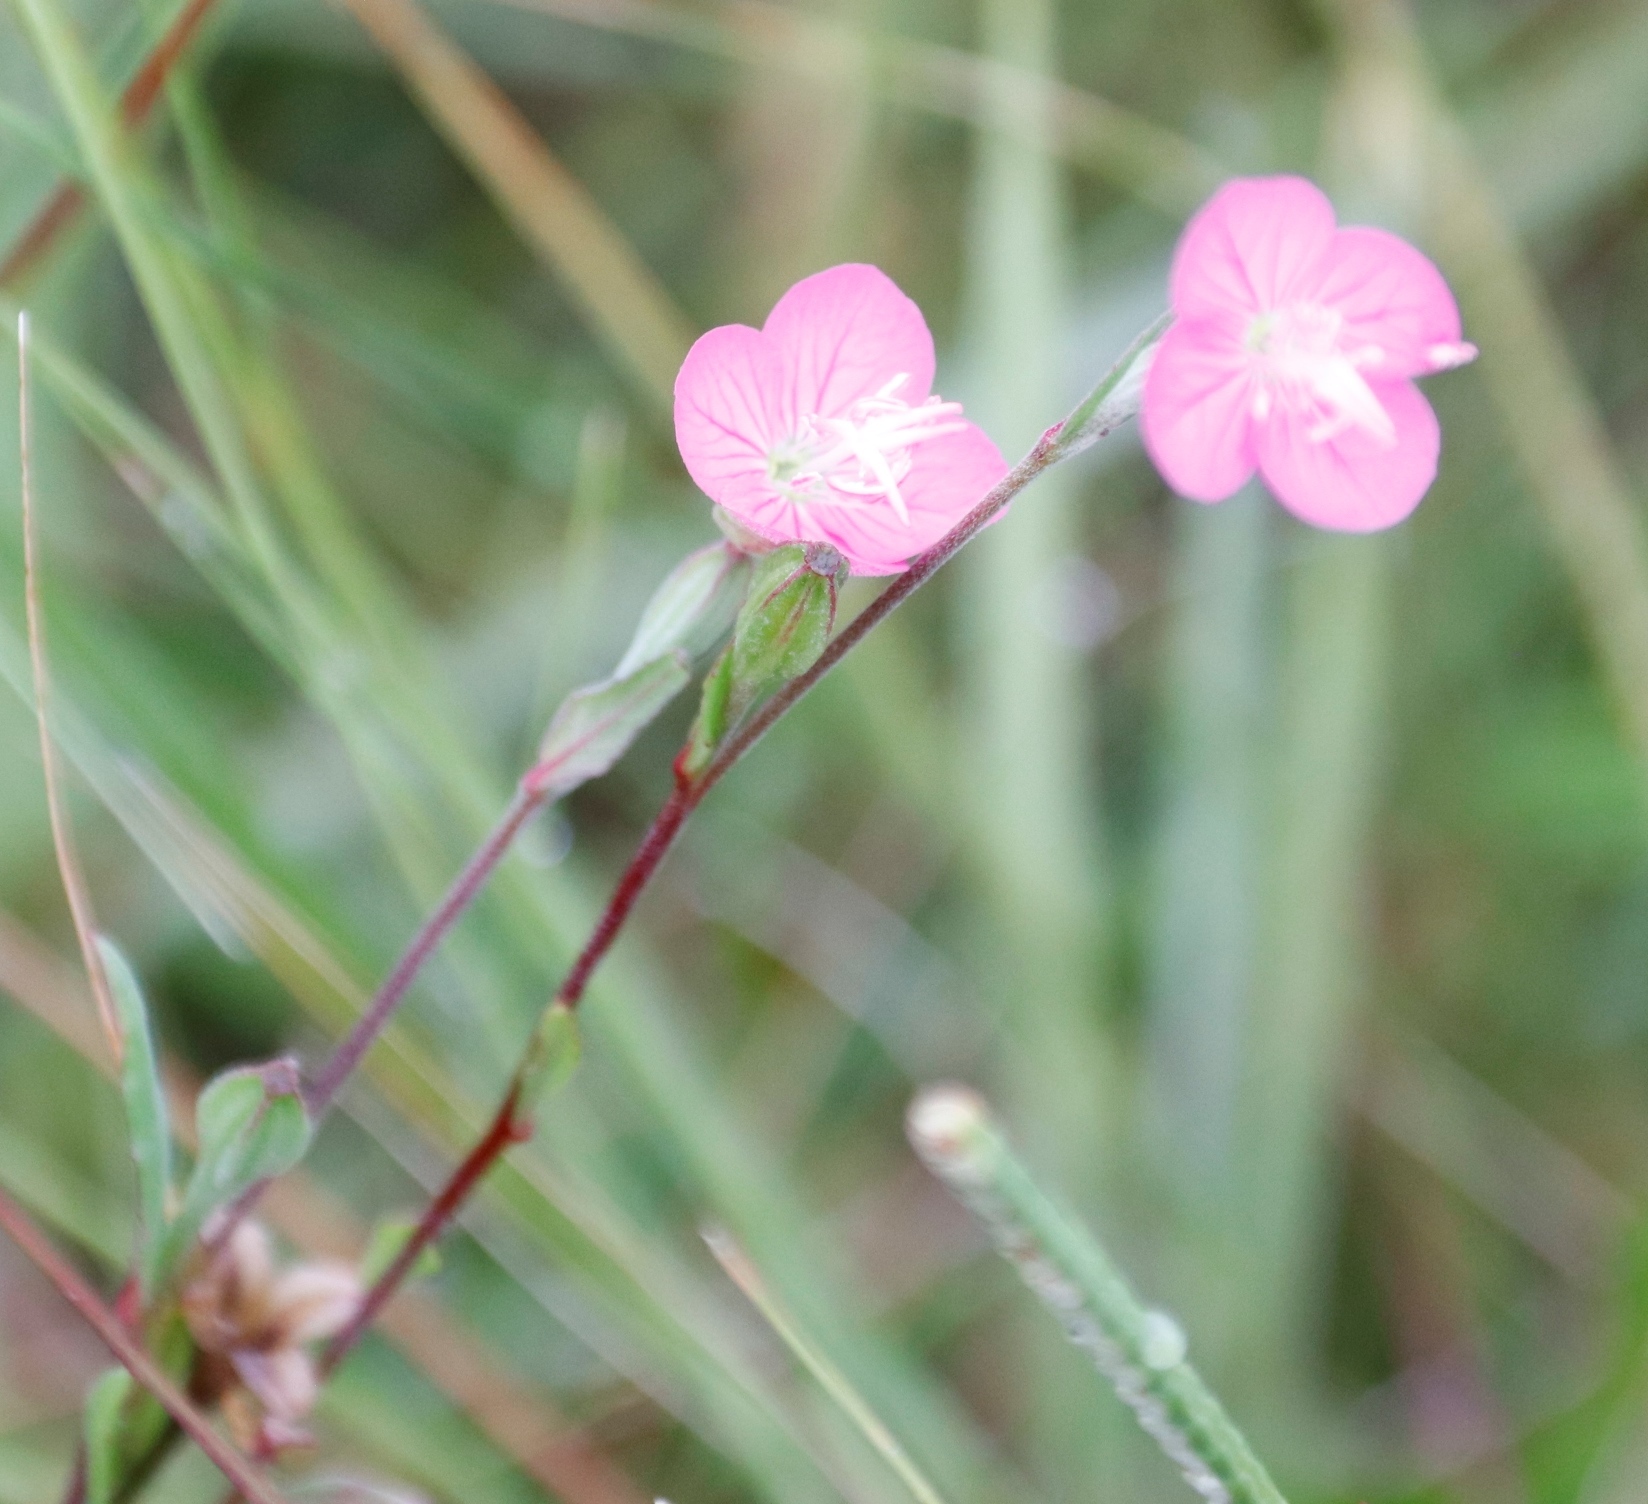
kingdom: Plantae
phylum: Tracheophyta
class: Magnoliopsida
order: Myrtales
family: Onagraceae
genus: Oenothera
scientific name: Oenothera rosea
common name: Rosy evening-primrose
